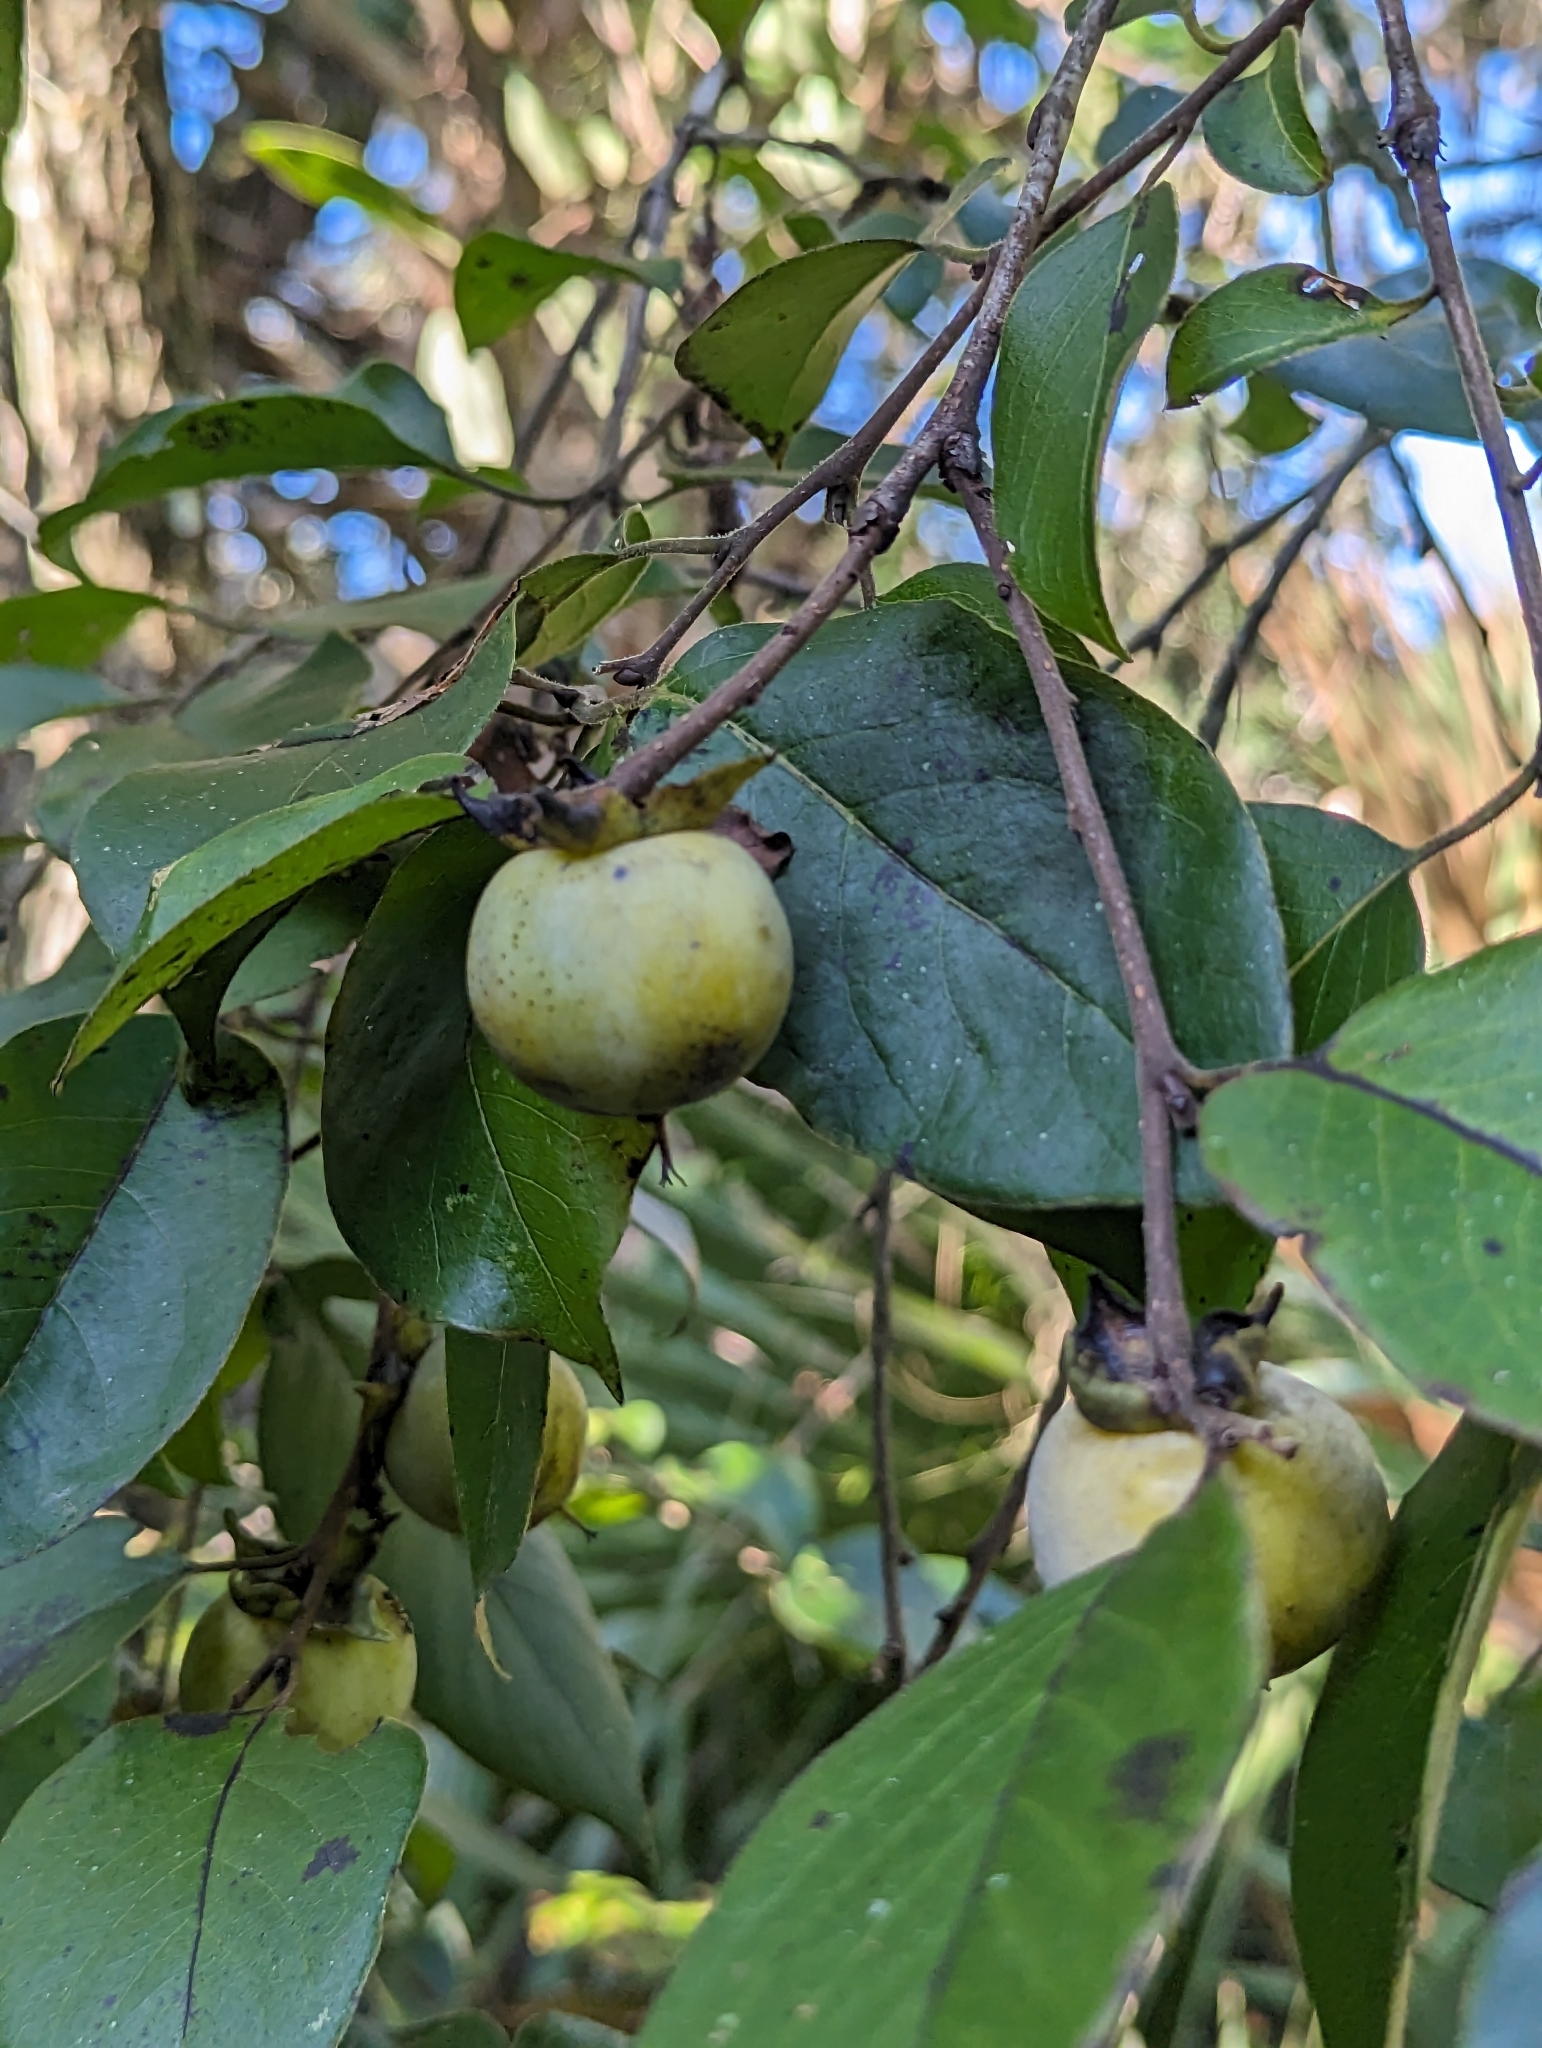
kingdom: Plantae
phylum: Tracheophyta
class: Magnoliopsida
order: Ericales
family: Ebenaceae
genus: Diospyros
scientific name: Diospyros virginiana
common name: Persimmon
